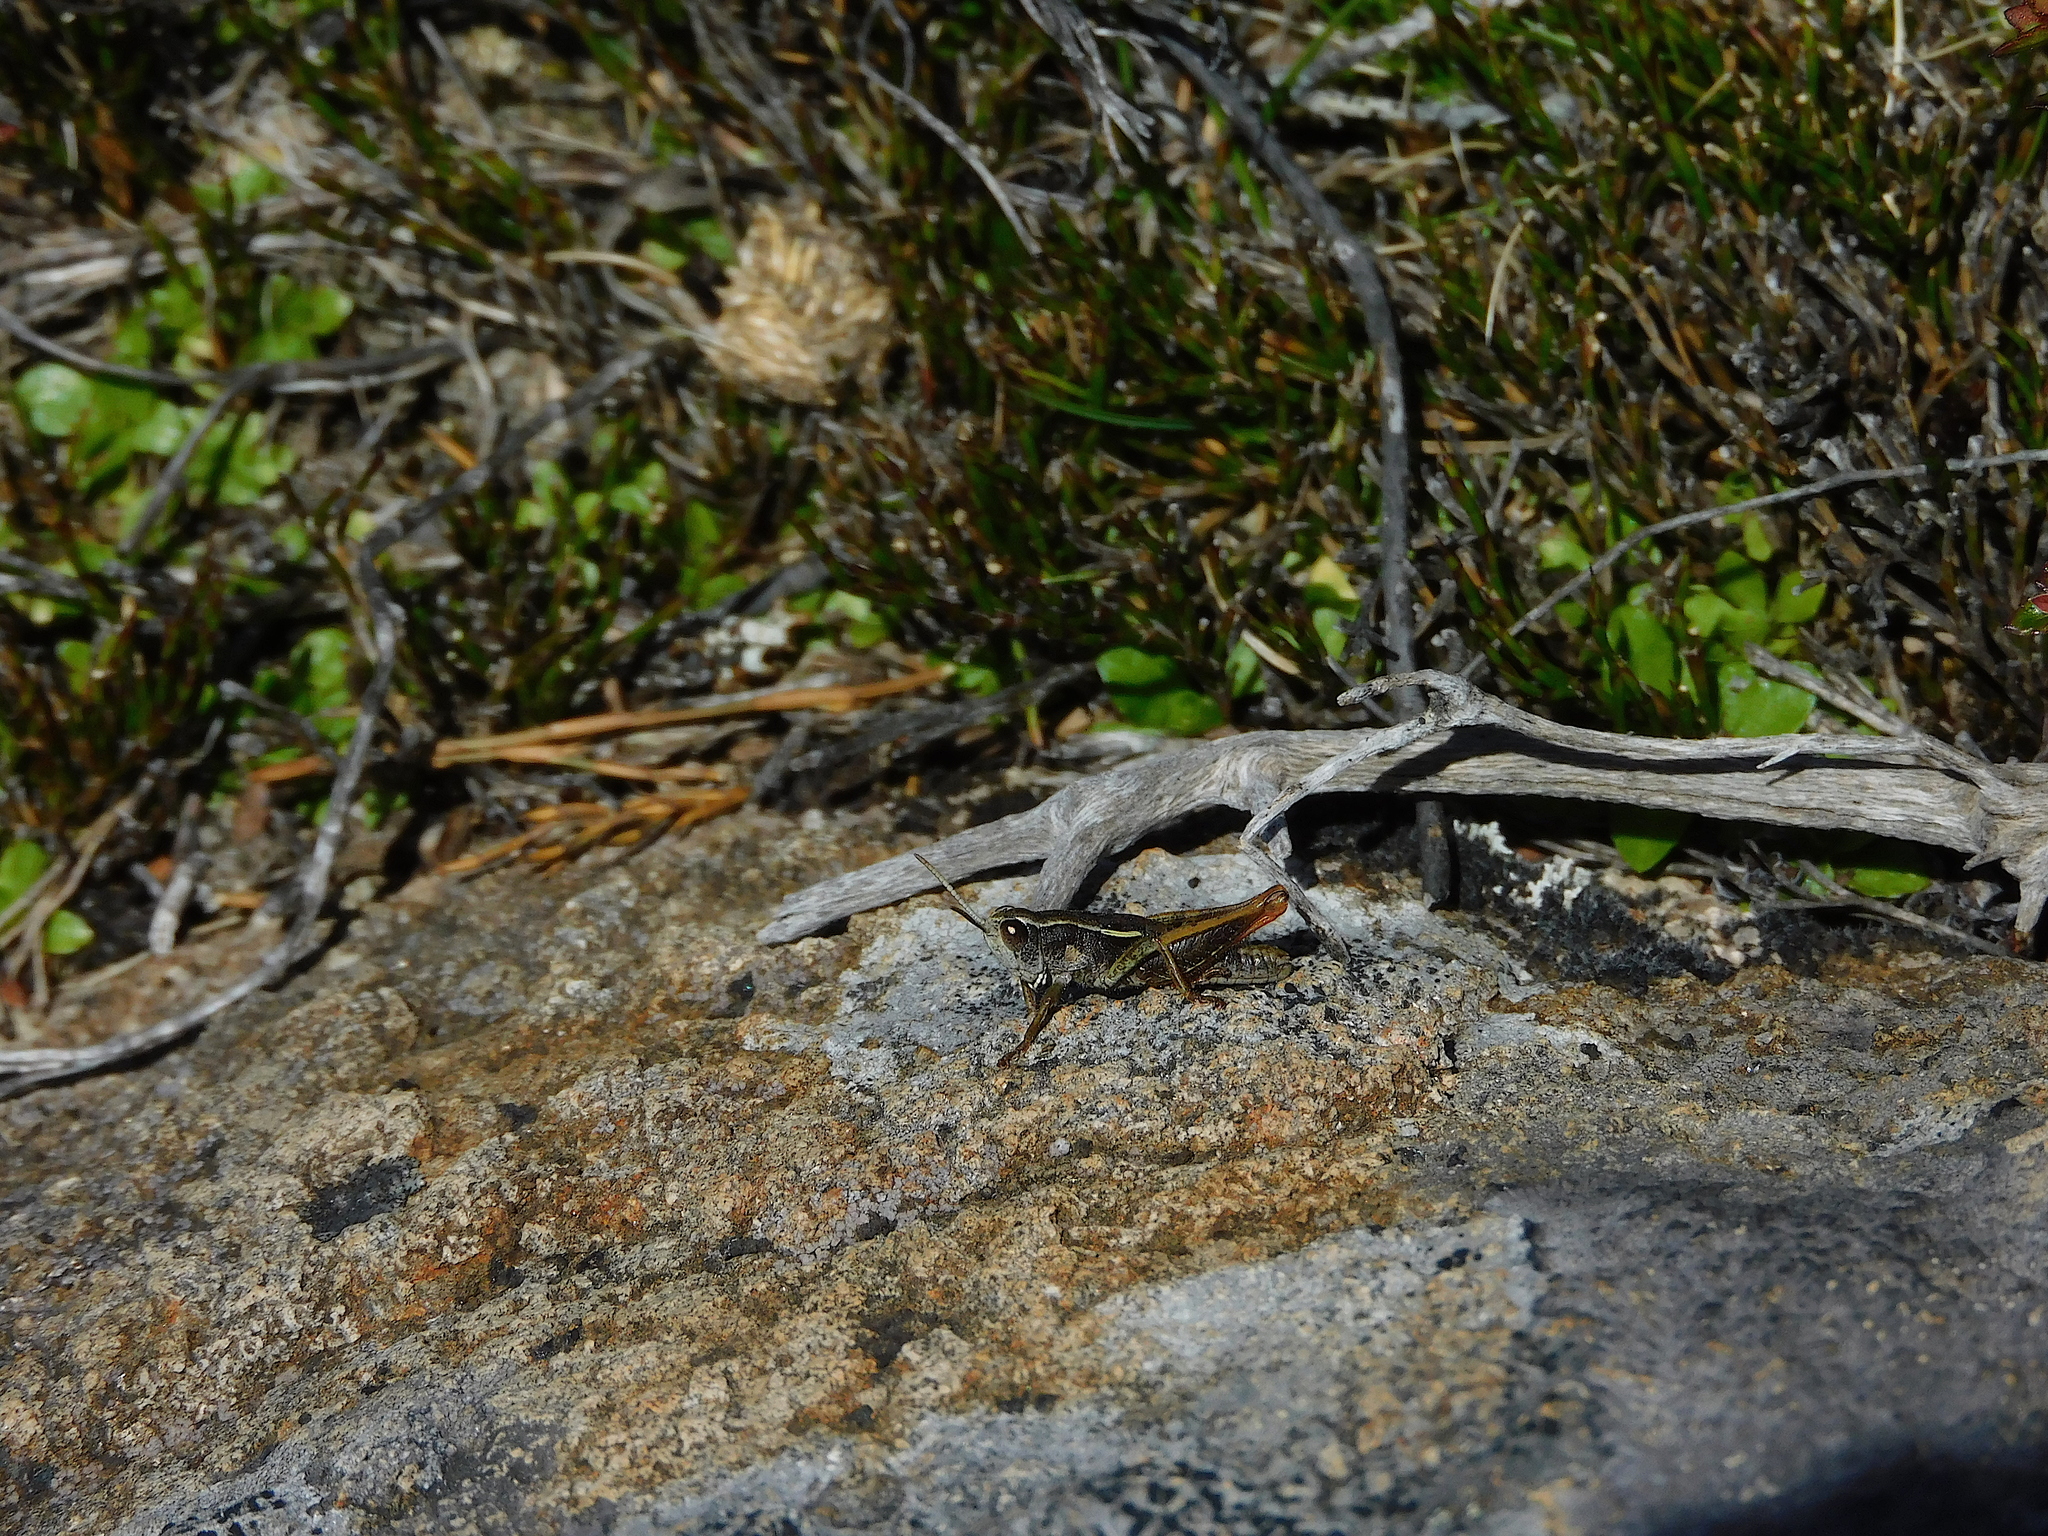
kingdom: Animalia
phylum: Arthropoda
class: Insecta
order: Orthoptera
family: Acrididae
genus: Russalpia
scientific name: Russalpia albertisi
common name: Tassie hopper
